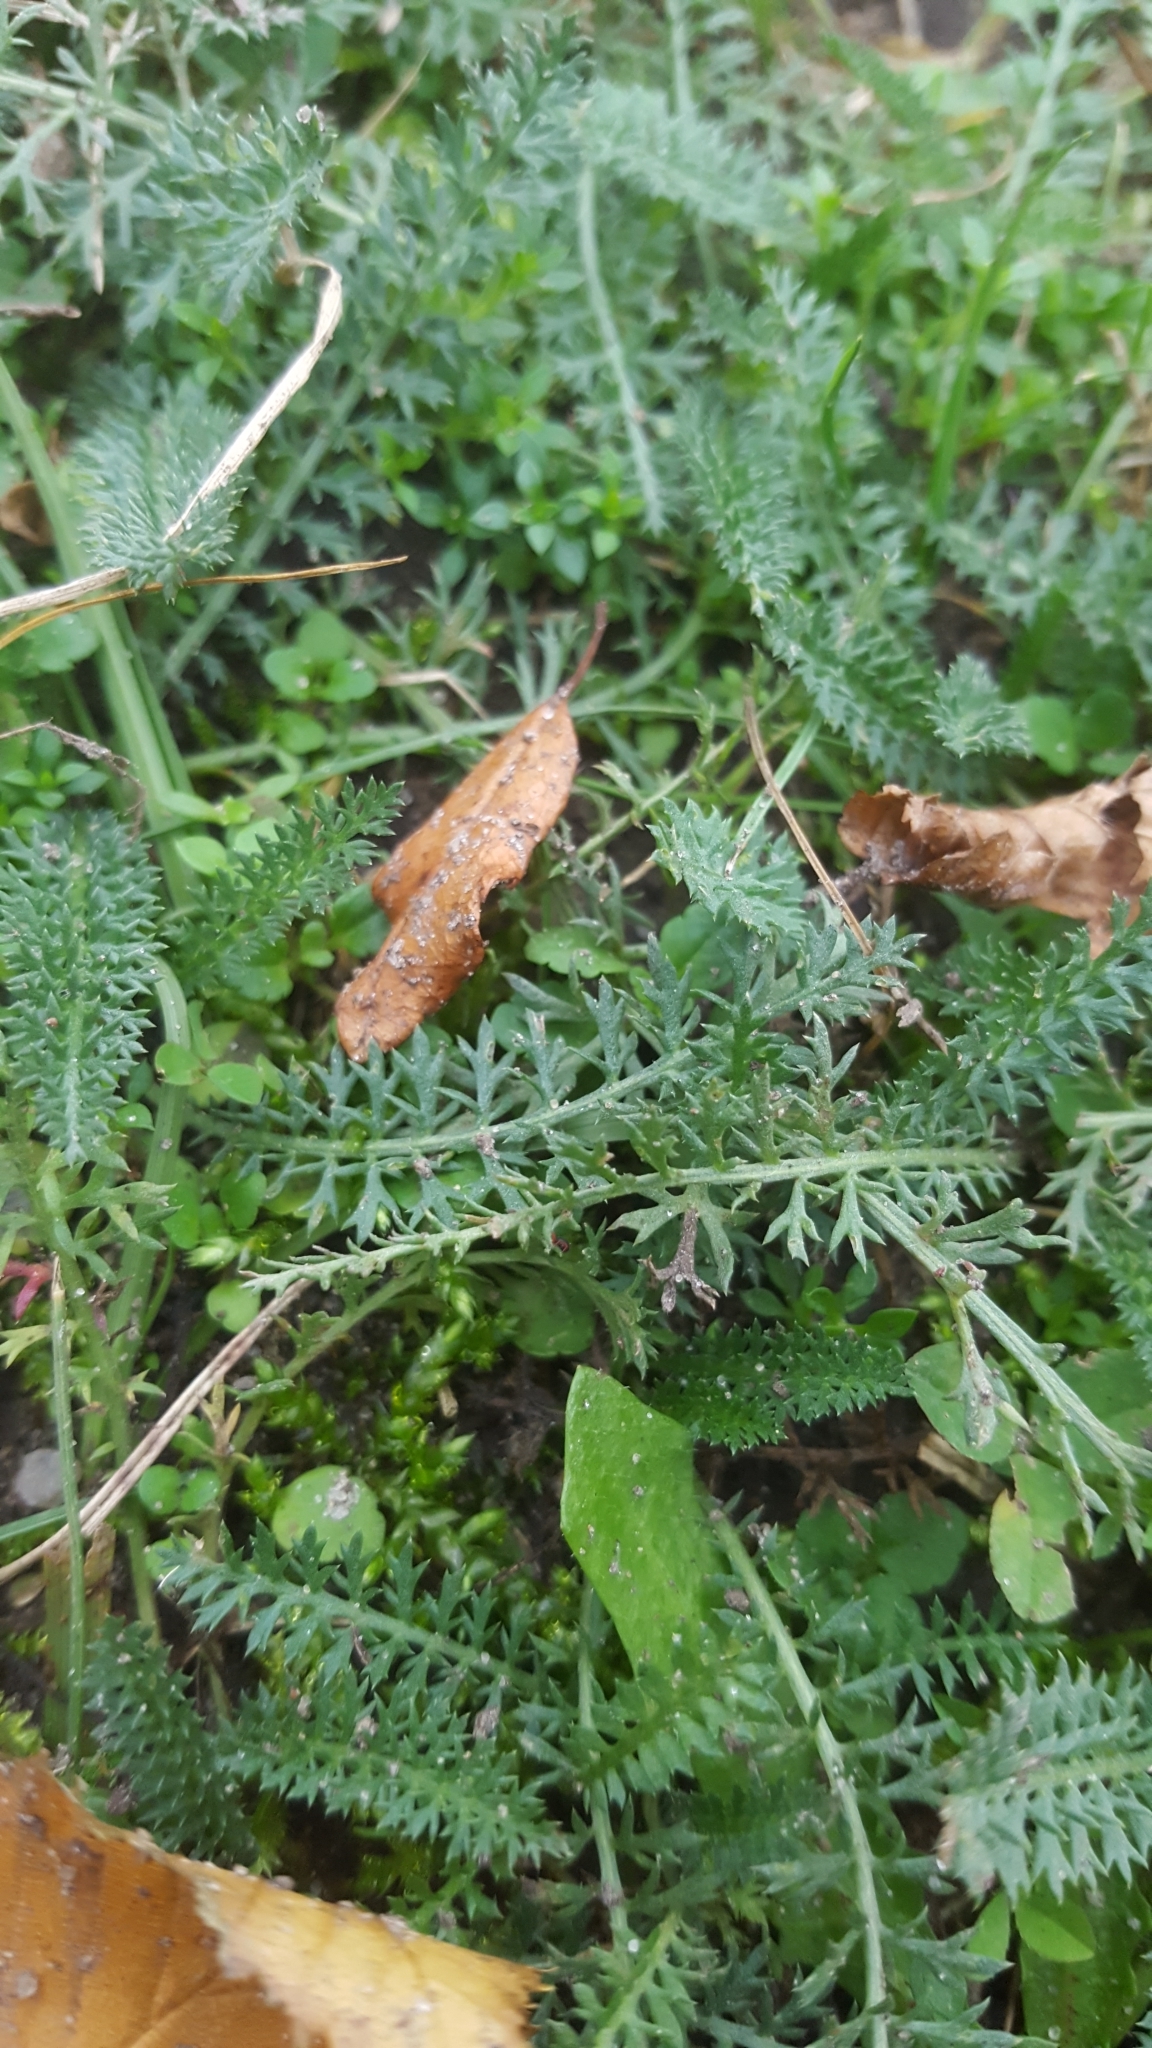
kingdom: Plantae
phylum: Tracheophyta
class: Magnoliopsida
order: Asterales
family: Asteraceae
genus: Achillea
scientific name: Achillea millefolium
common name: Yarrow
